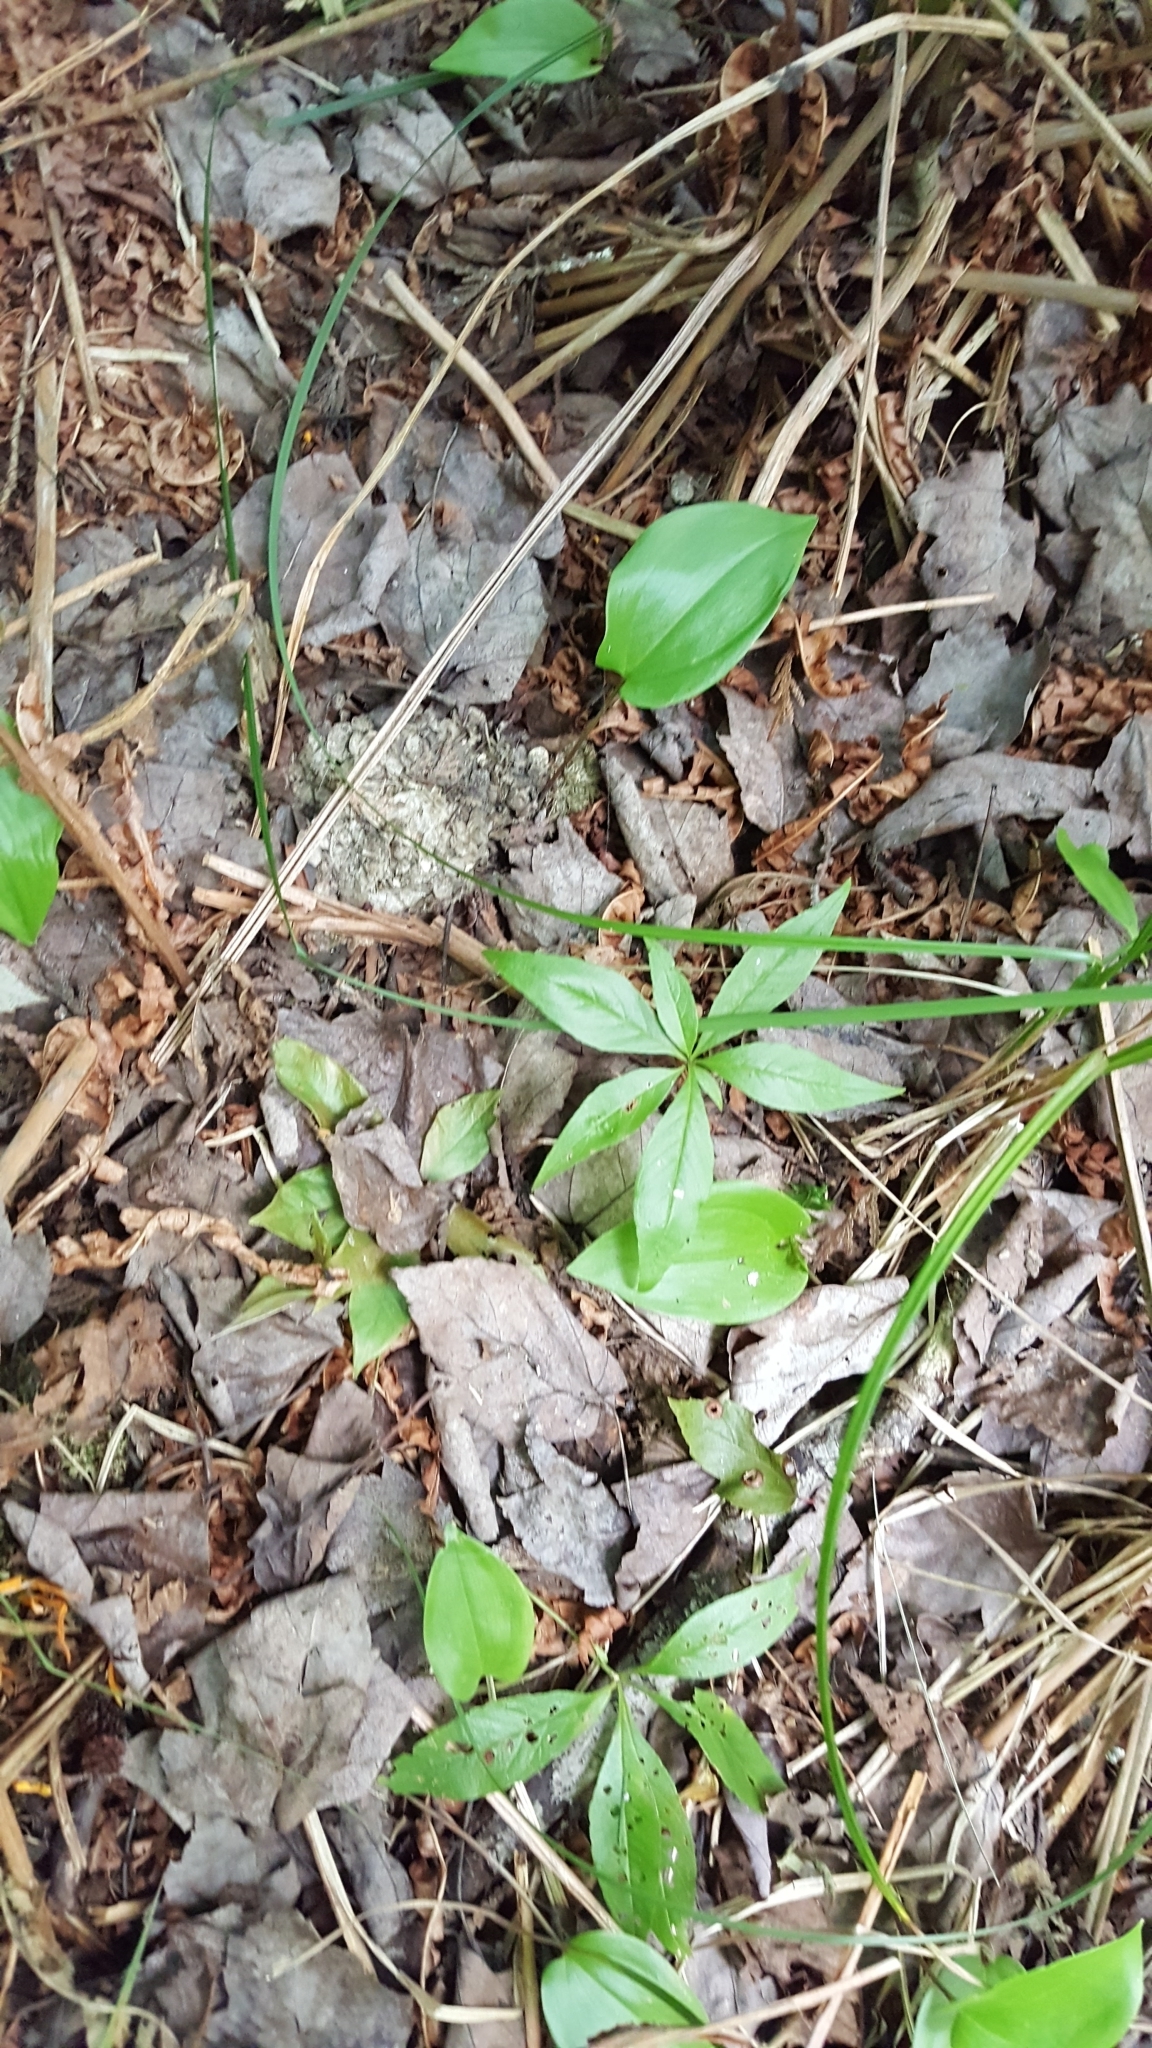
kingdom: Plantae
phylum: Tracheophyta
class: Magnoliopsida
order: Ericales
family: Primulaceae
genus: Lysimachia
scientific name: Lysimachia borealis
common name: American starflower
